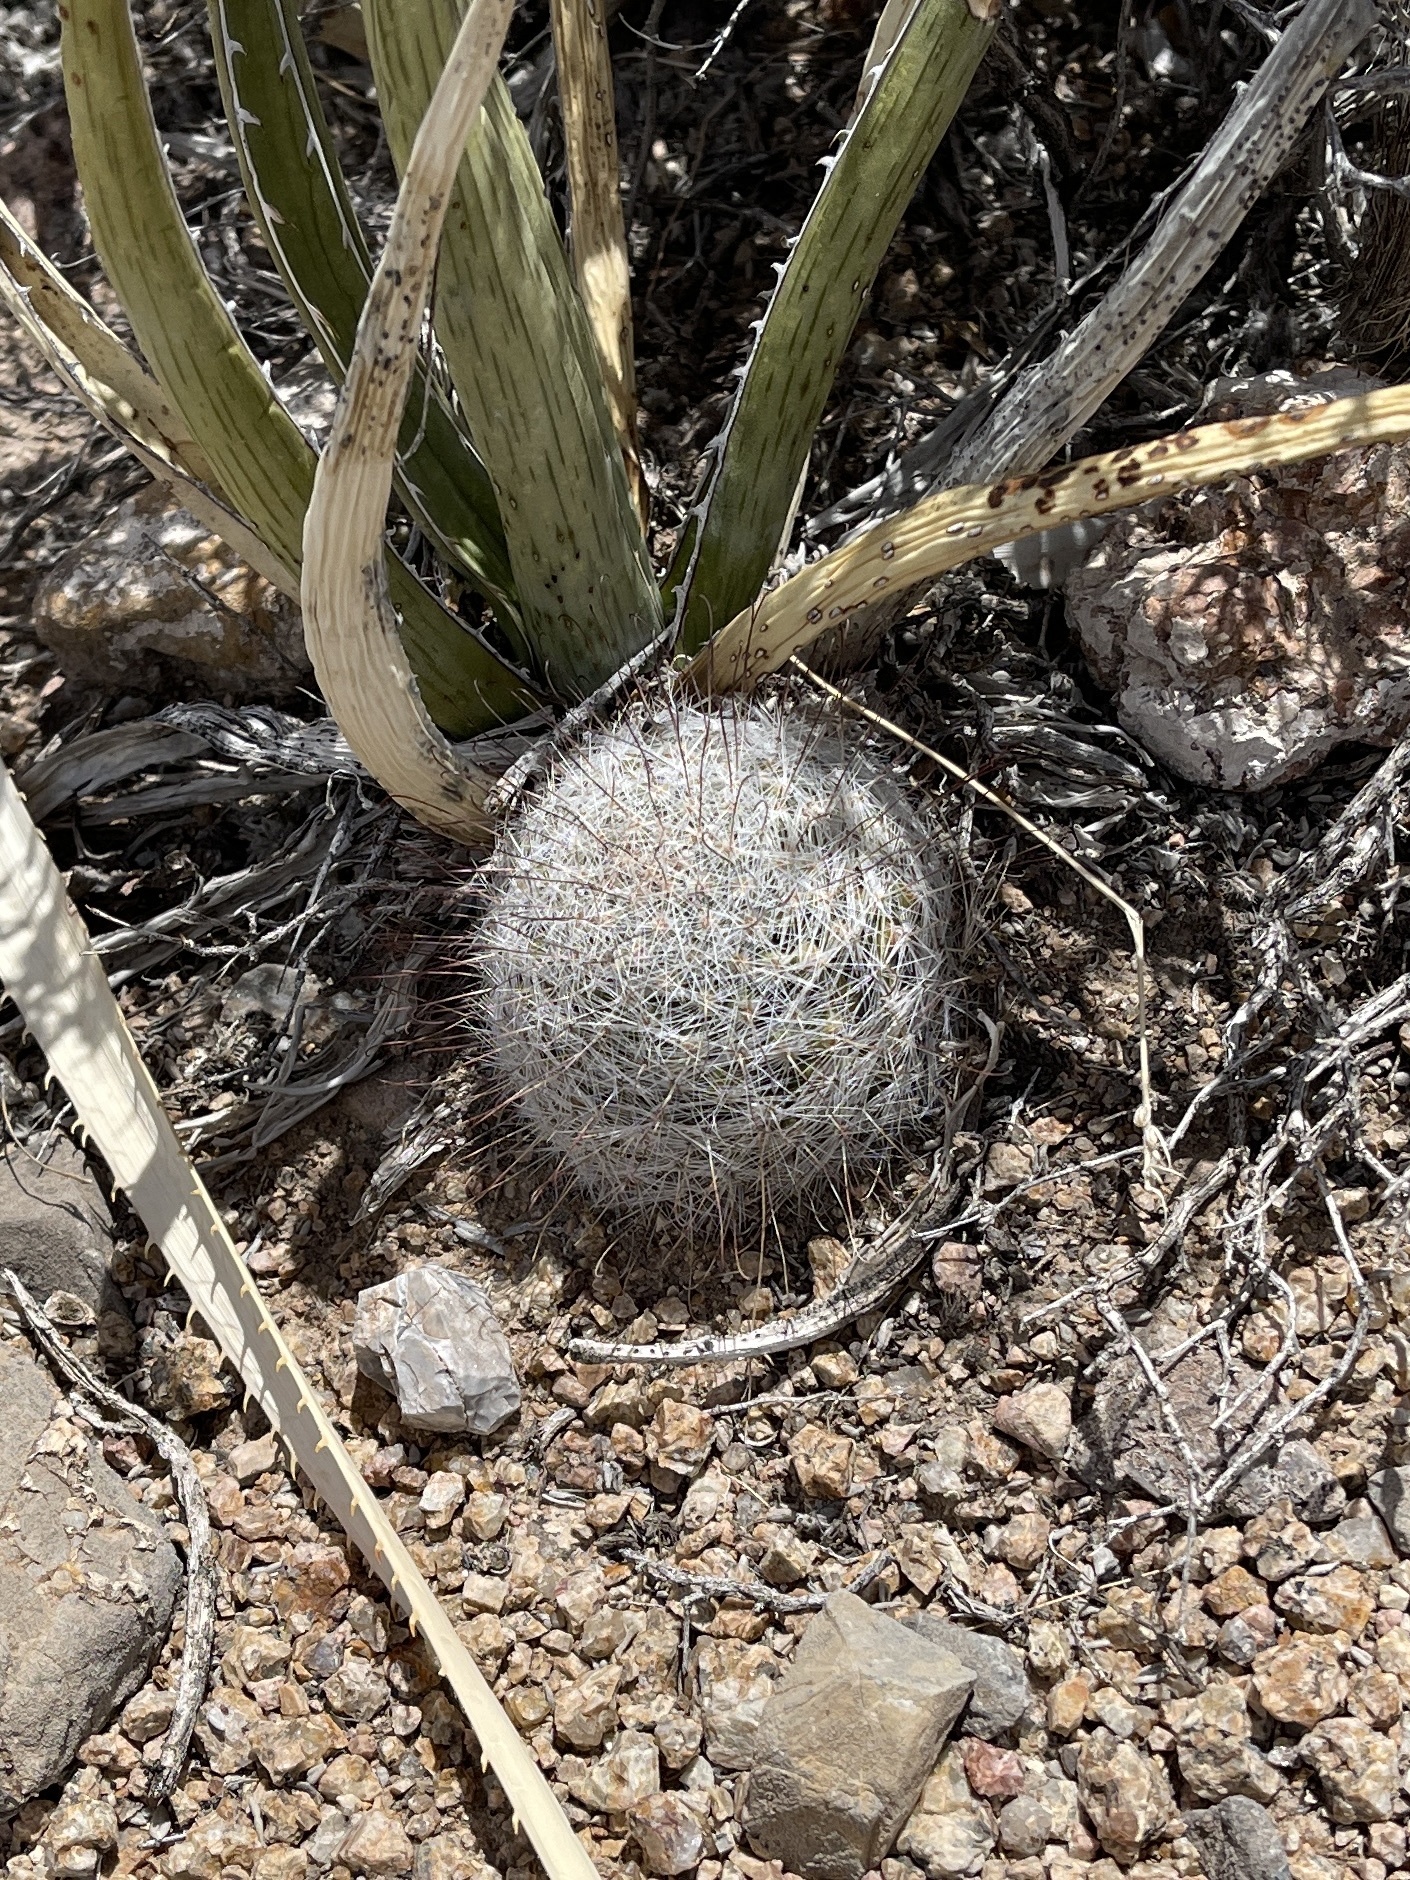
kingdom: Plantae
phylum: Tracheophyta
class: Magnoliopsida
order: Caryophyllales
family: Cactaceae
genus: Cochemiea
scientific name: Cochemiea grahamii
